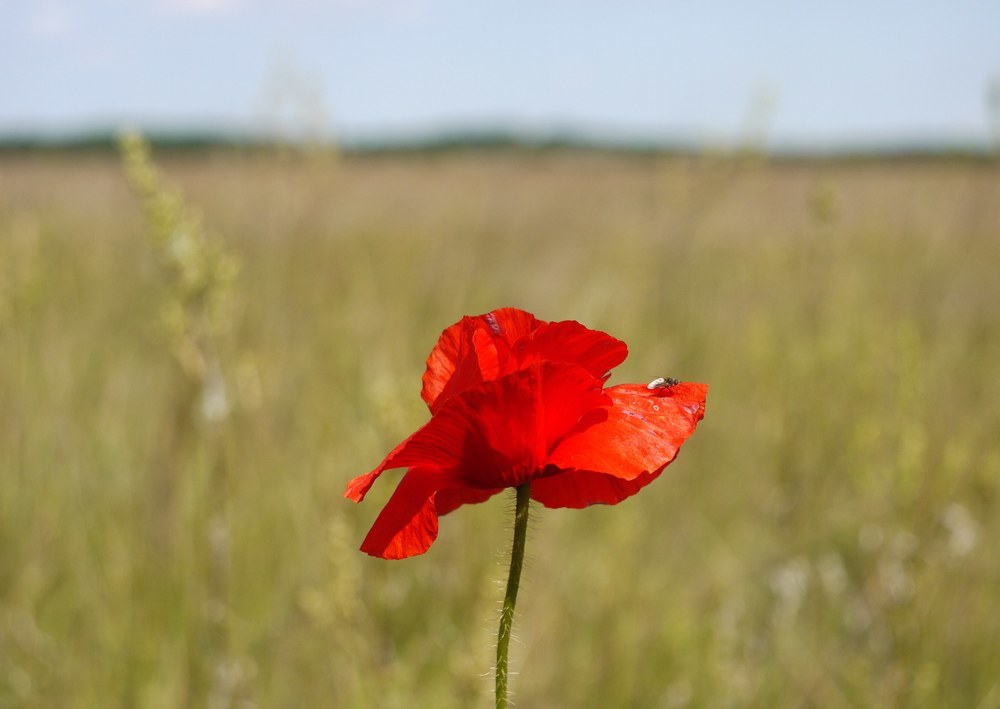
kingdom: Plantae
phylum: Tracheophyta
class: Magnoliopsida
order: Ranunculales
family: Papaveraceae
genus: Papaver
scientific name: Papaver rhoeas
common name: Corn poppy
